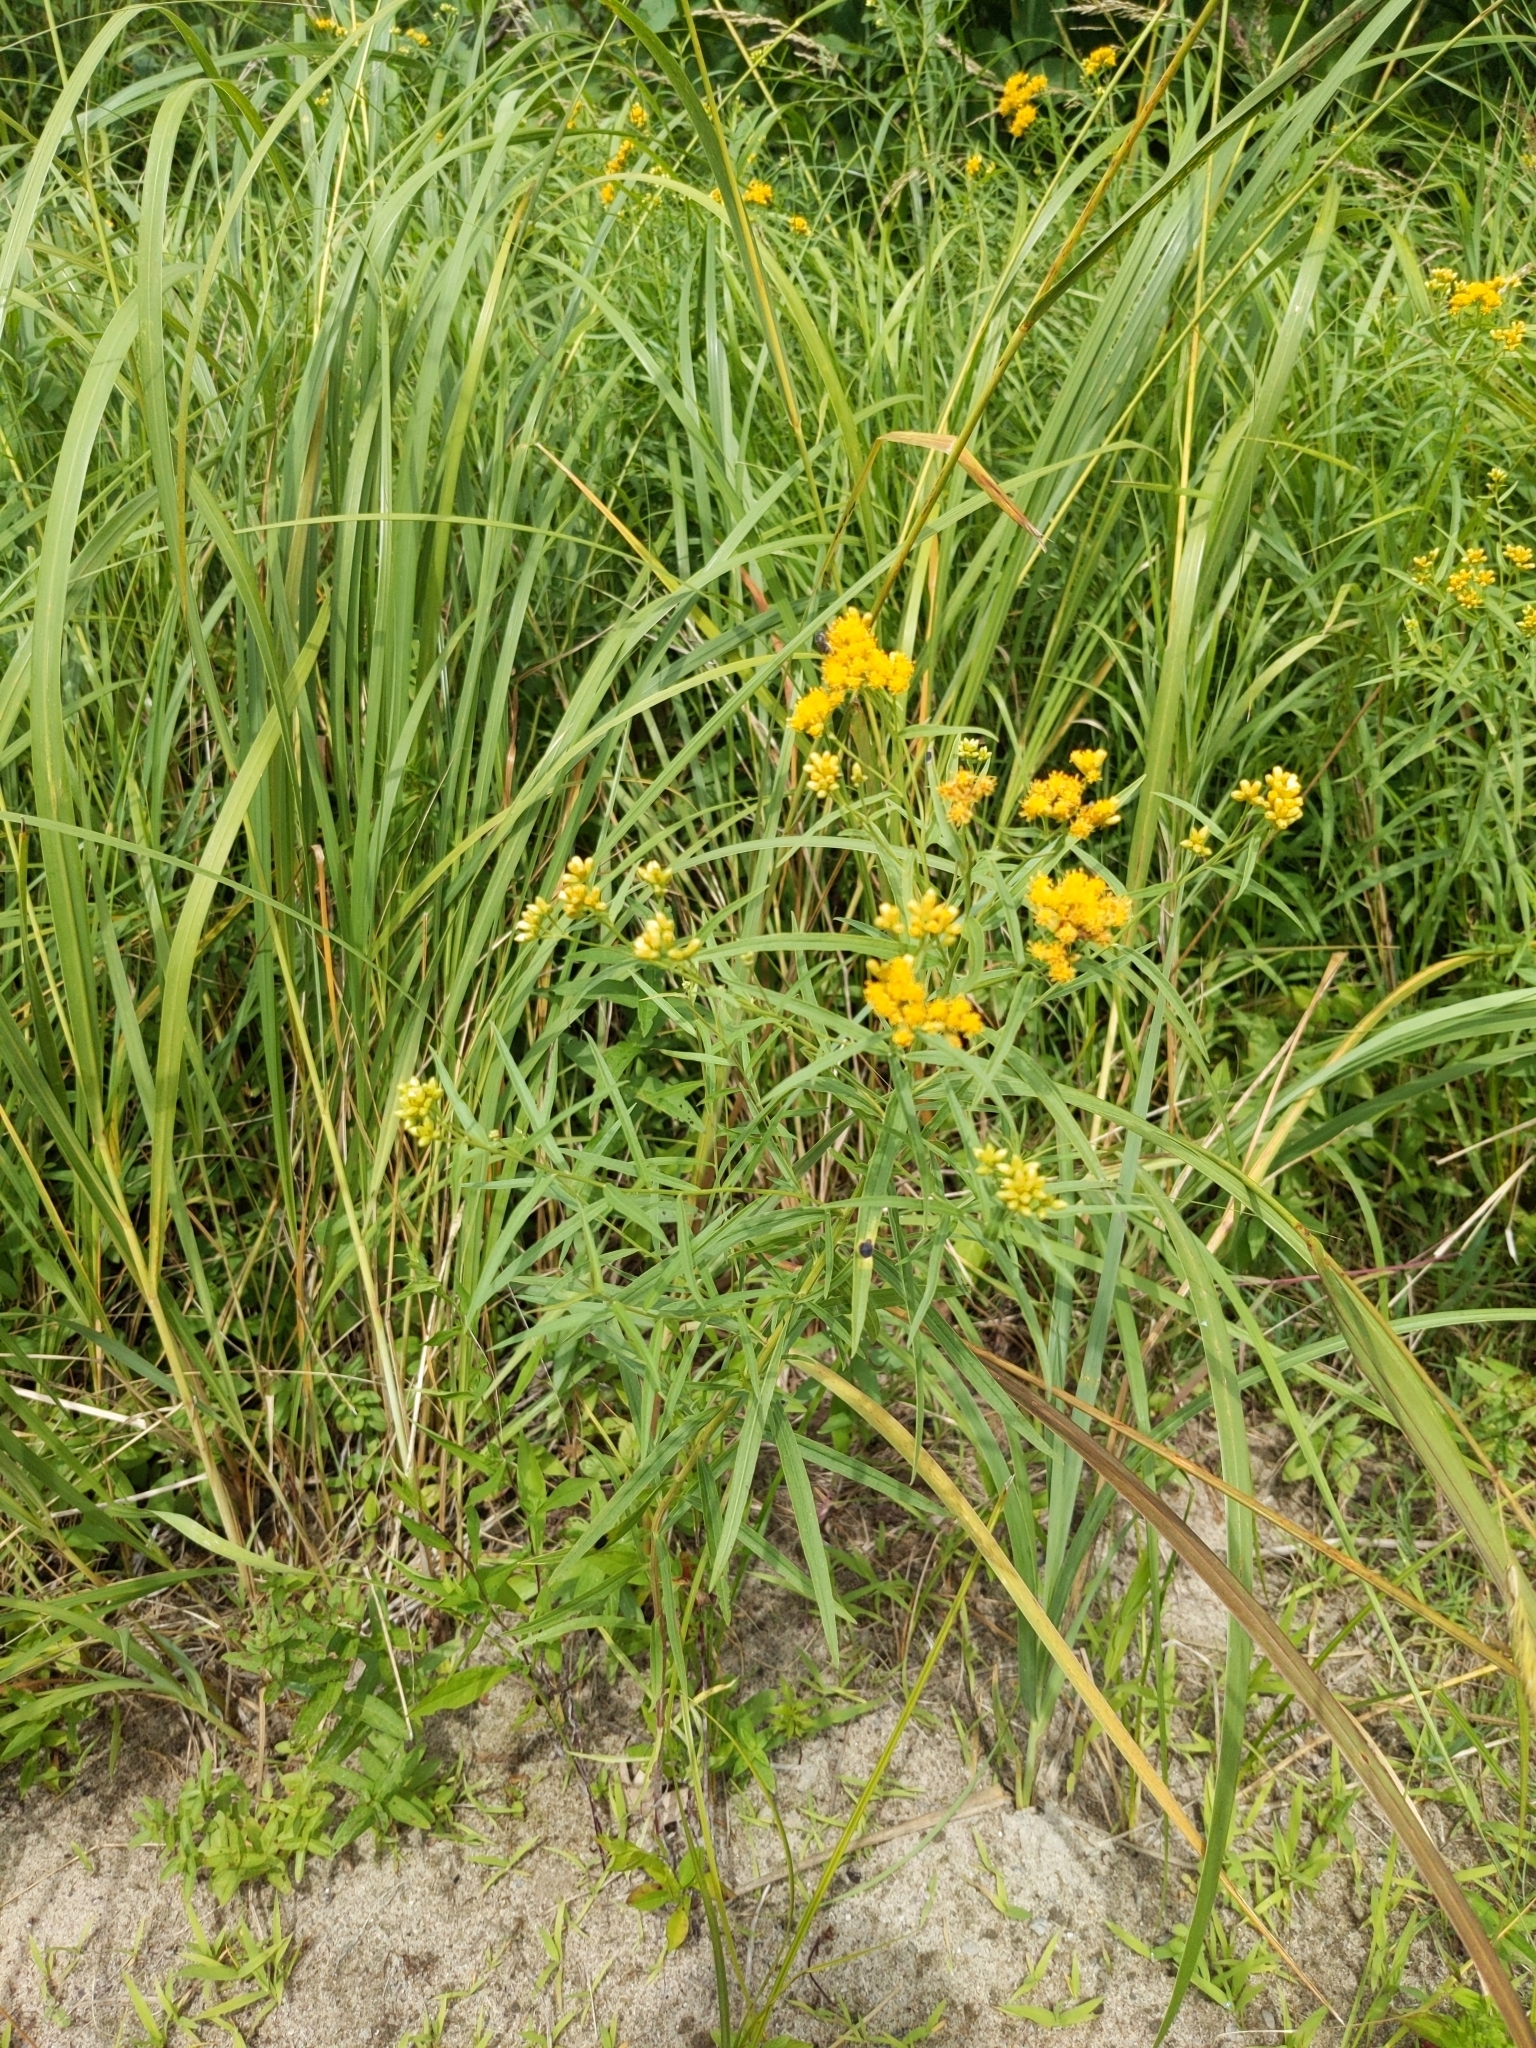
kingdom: Plantae
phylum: Tracheophyta
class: Magnoliopsida
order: Asterales
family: Asteraceae
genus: Euthamia
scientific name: Euthamia graminifolia
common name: Common goldentop
